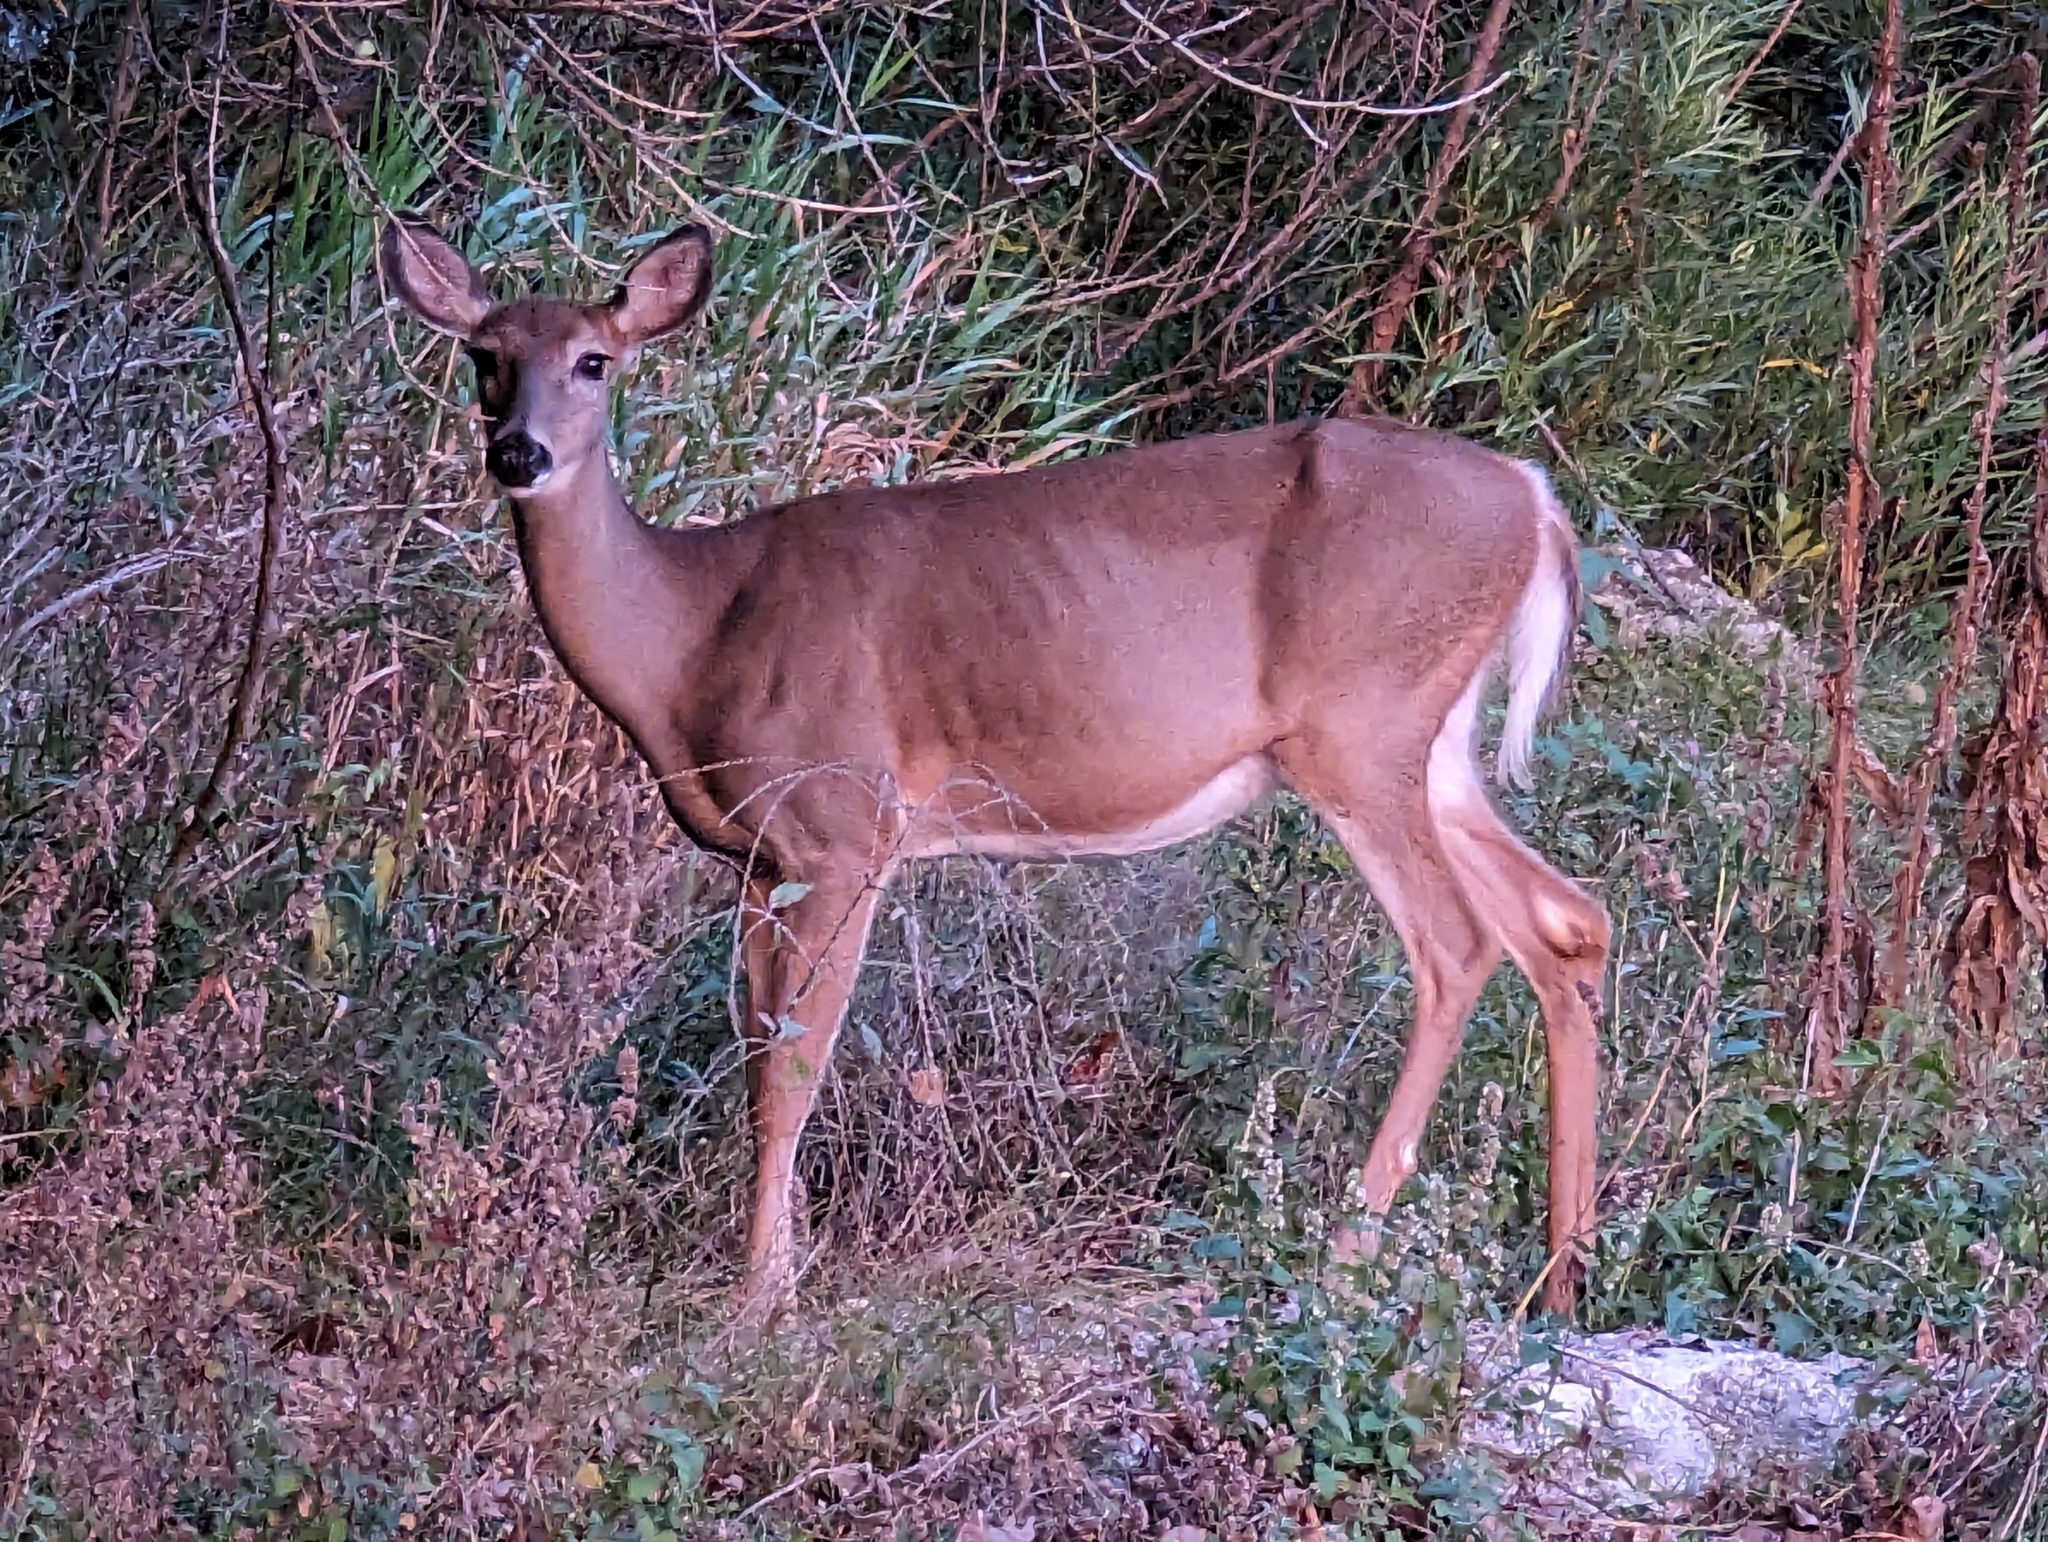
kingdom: Animalia
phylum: Chordata
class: Mammalia
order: Artiodactyla
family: Cervidae
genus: Odocoileus
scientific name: Odocoileus virginianus
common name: White-tailed deer
